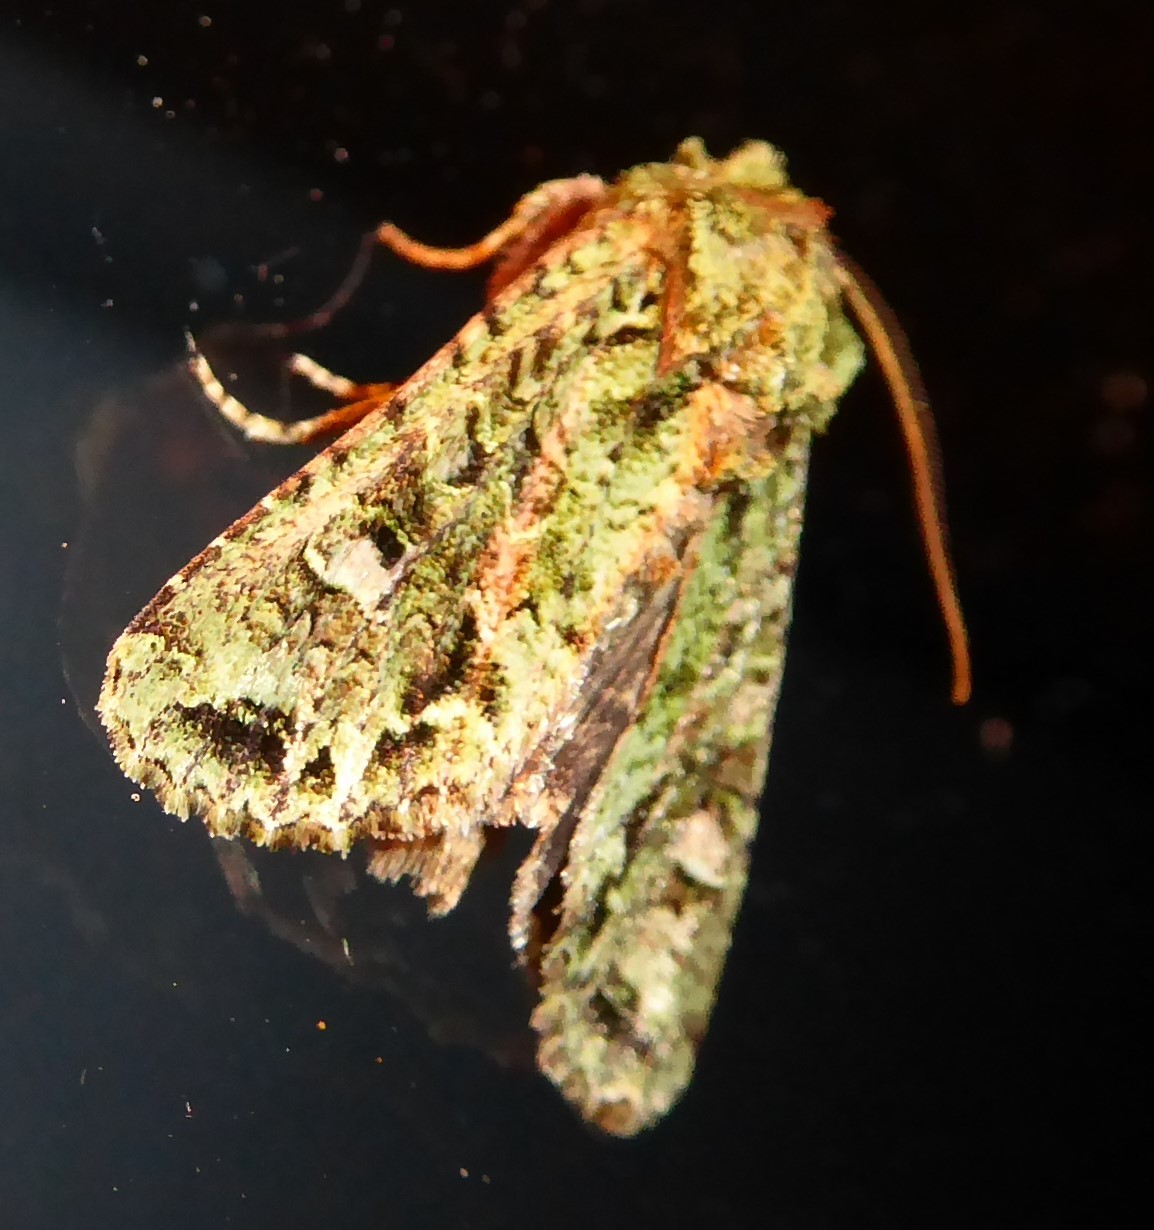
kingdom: Animalia
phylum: Arthropoda
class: Insecta
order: Lepidoptera
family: Noctuidae
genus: Ichneutica
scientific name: Ichneutica
